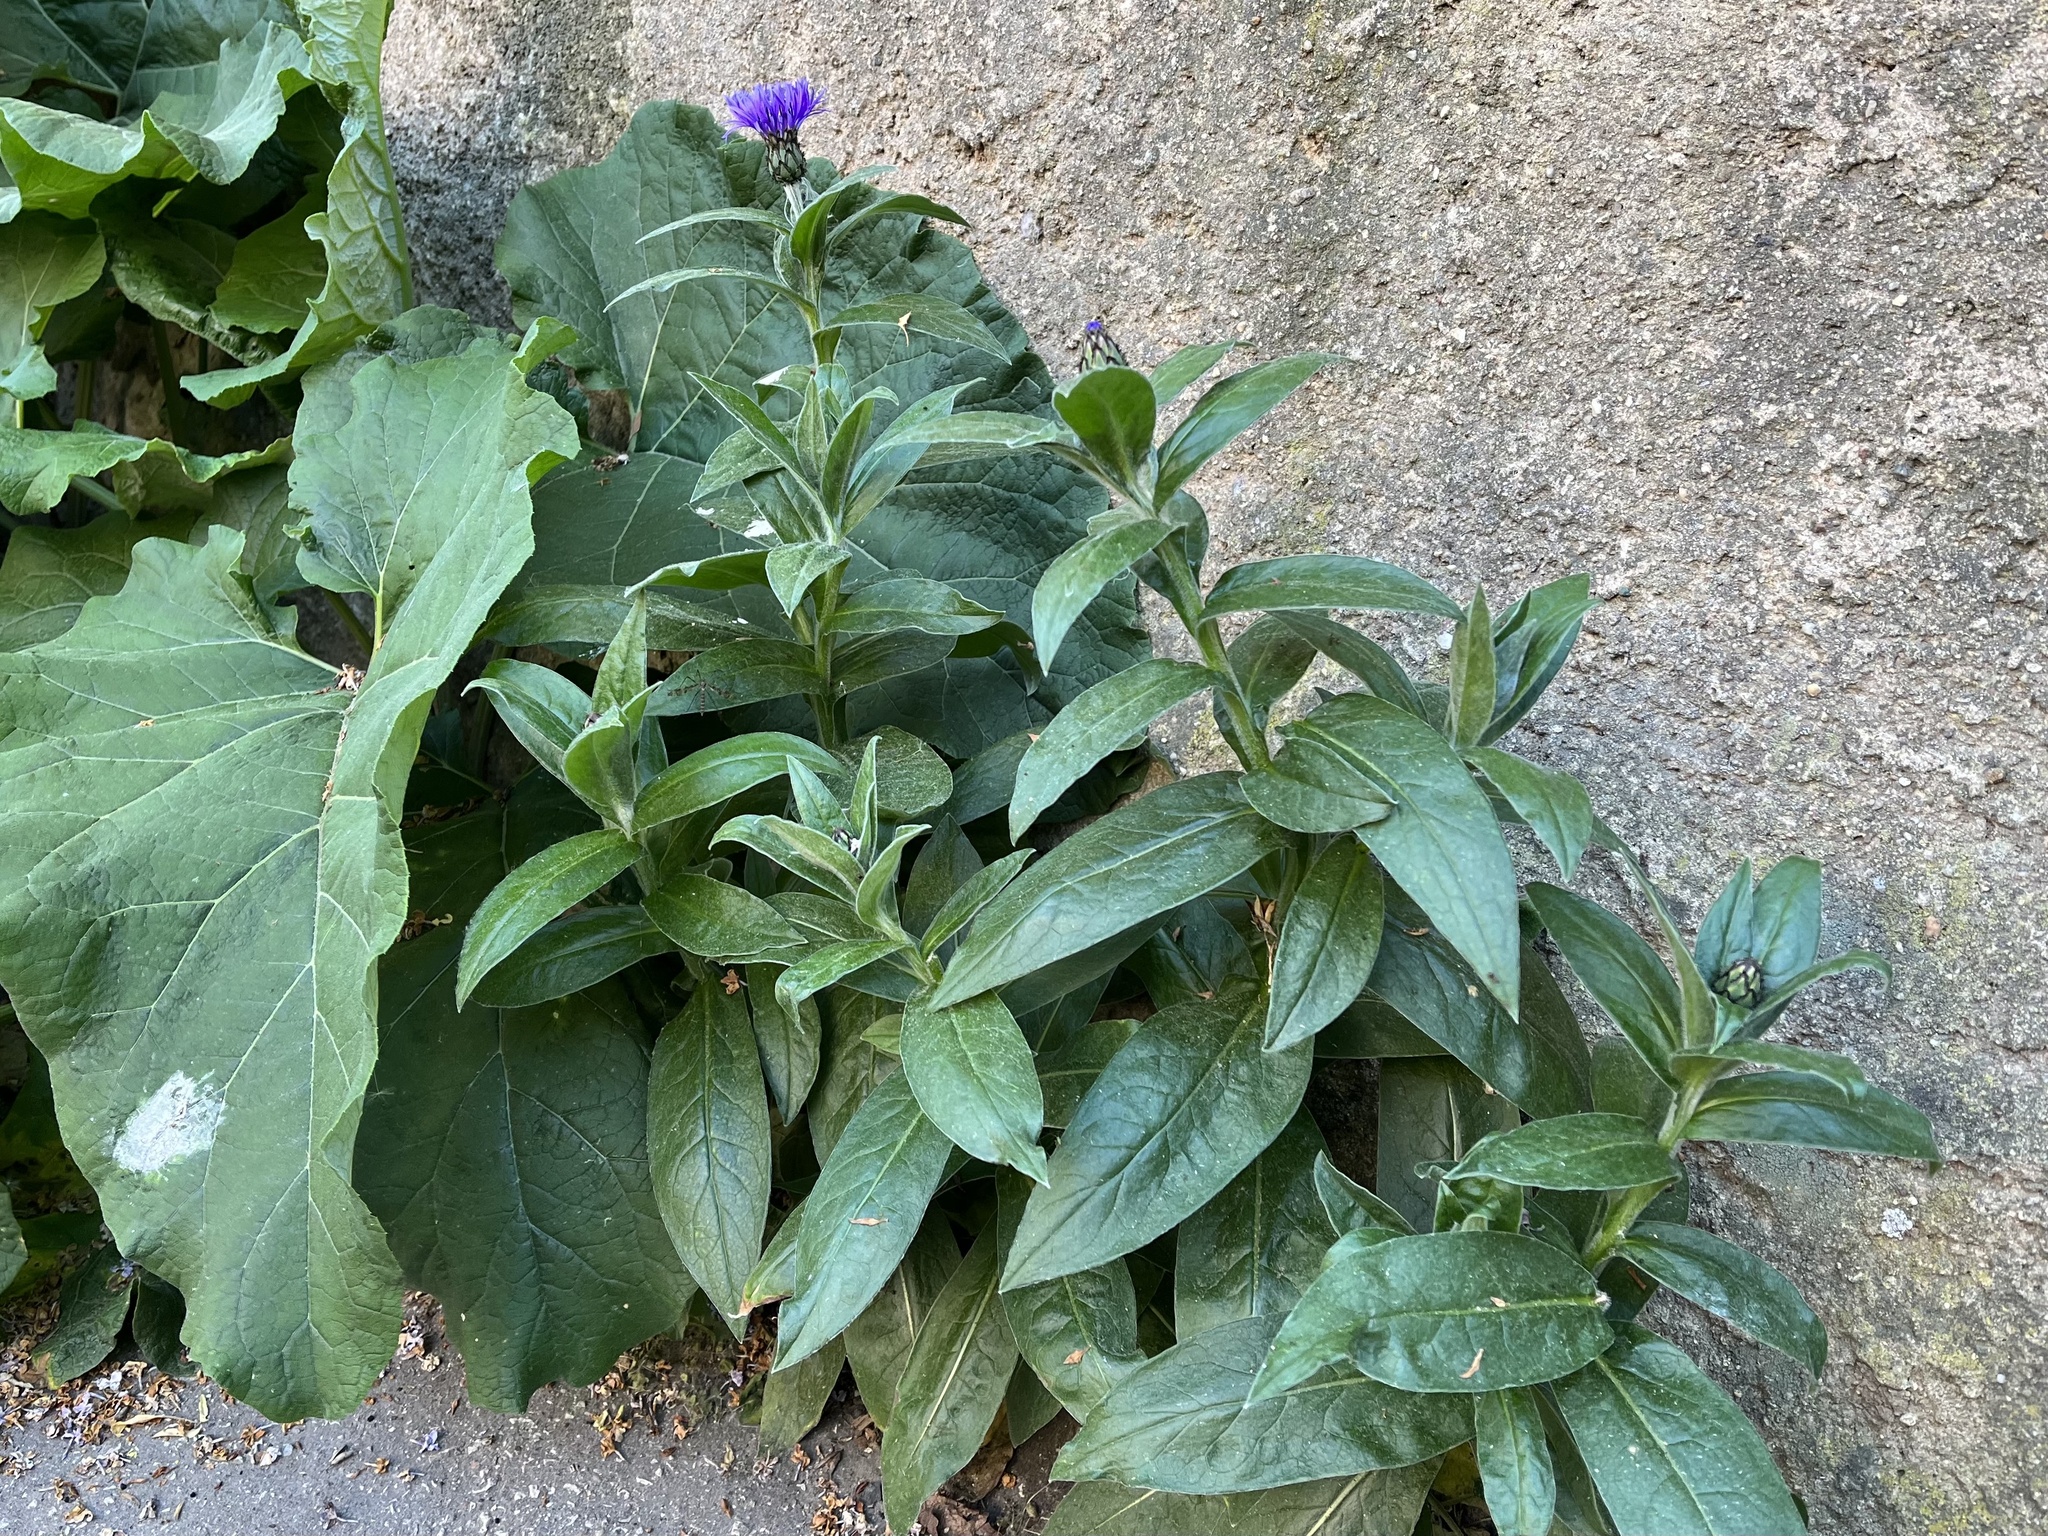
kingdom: Plantae
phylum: Tracheophyta
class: Magnoliopsida
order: Asterales
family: Asteraceae
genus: Centaurea
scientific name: Centaurea montana
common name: Perennial cornflower
